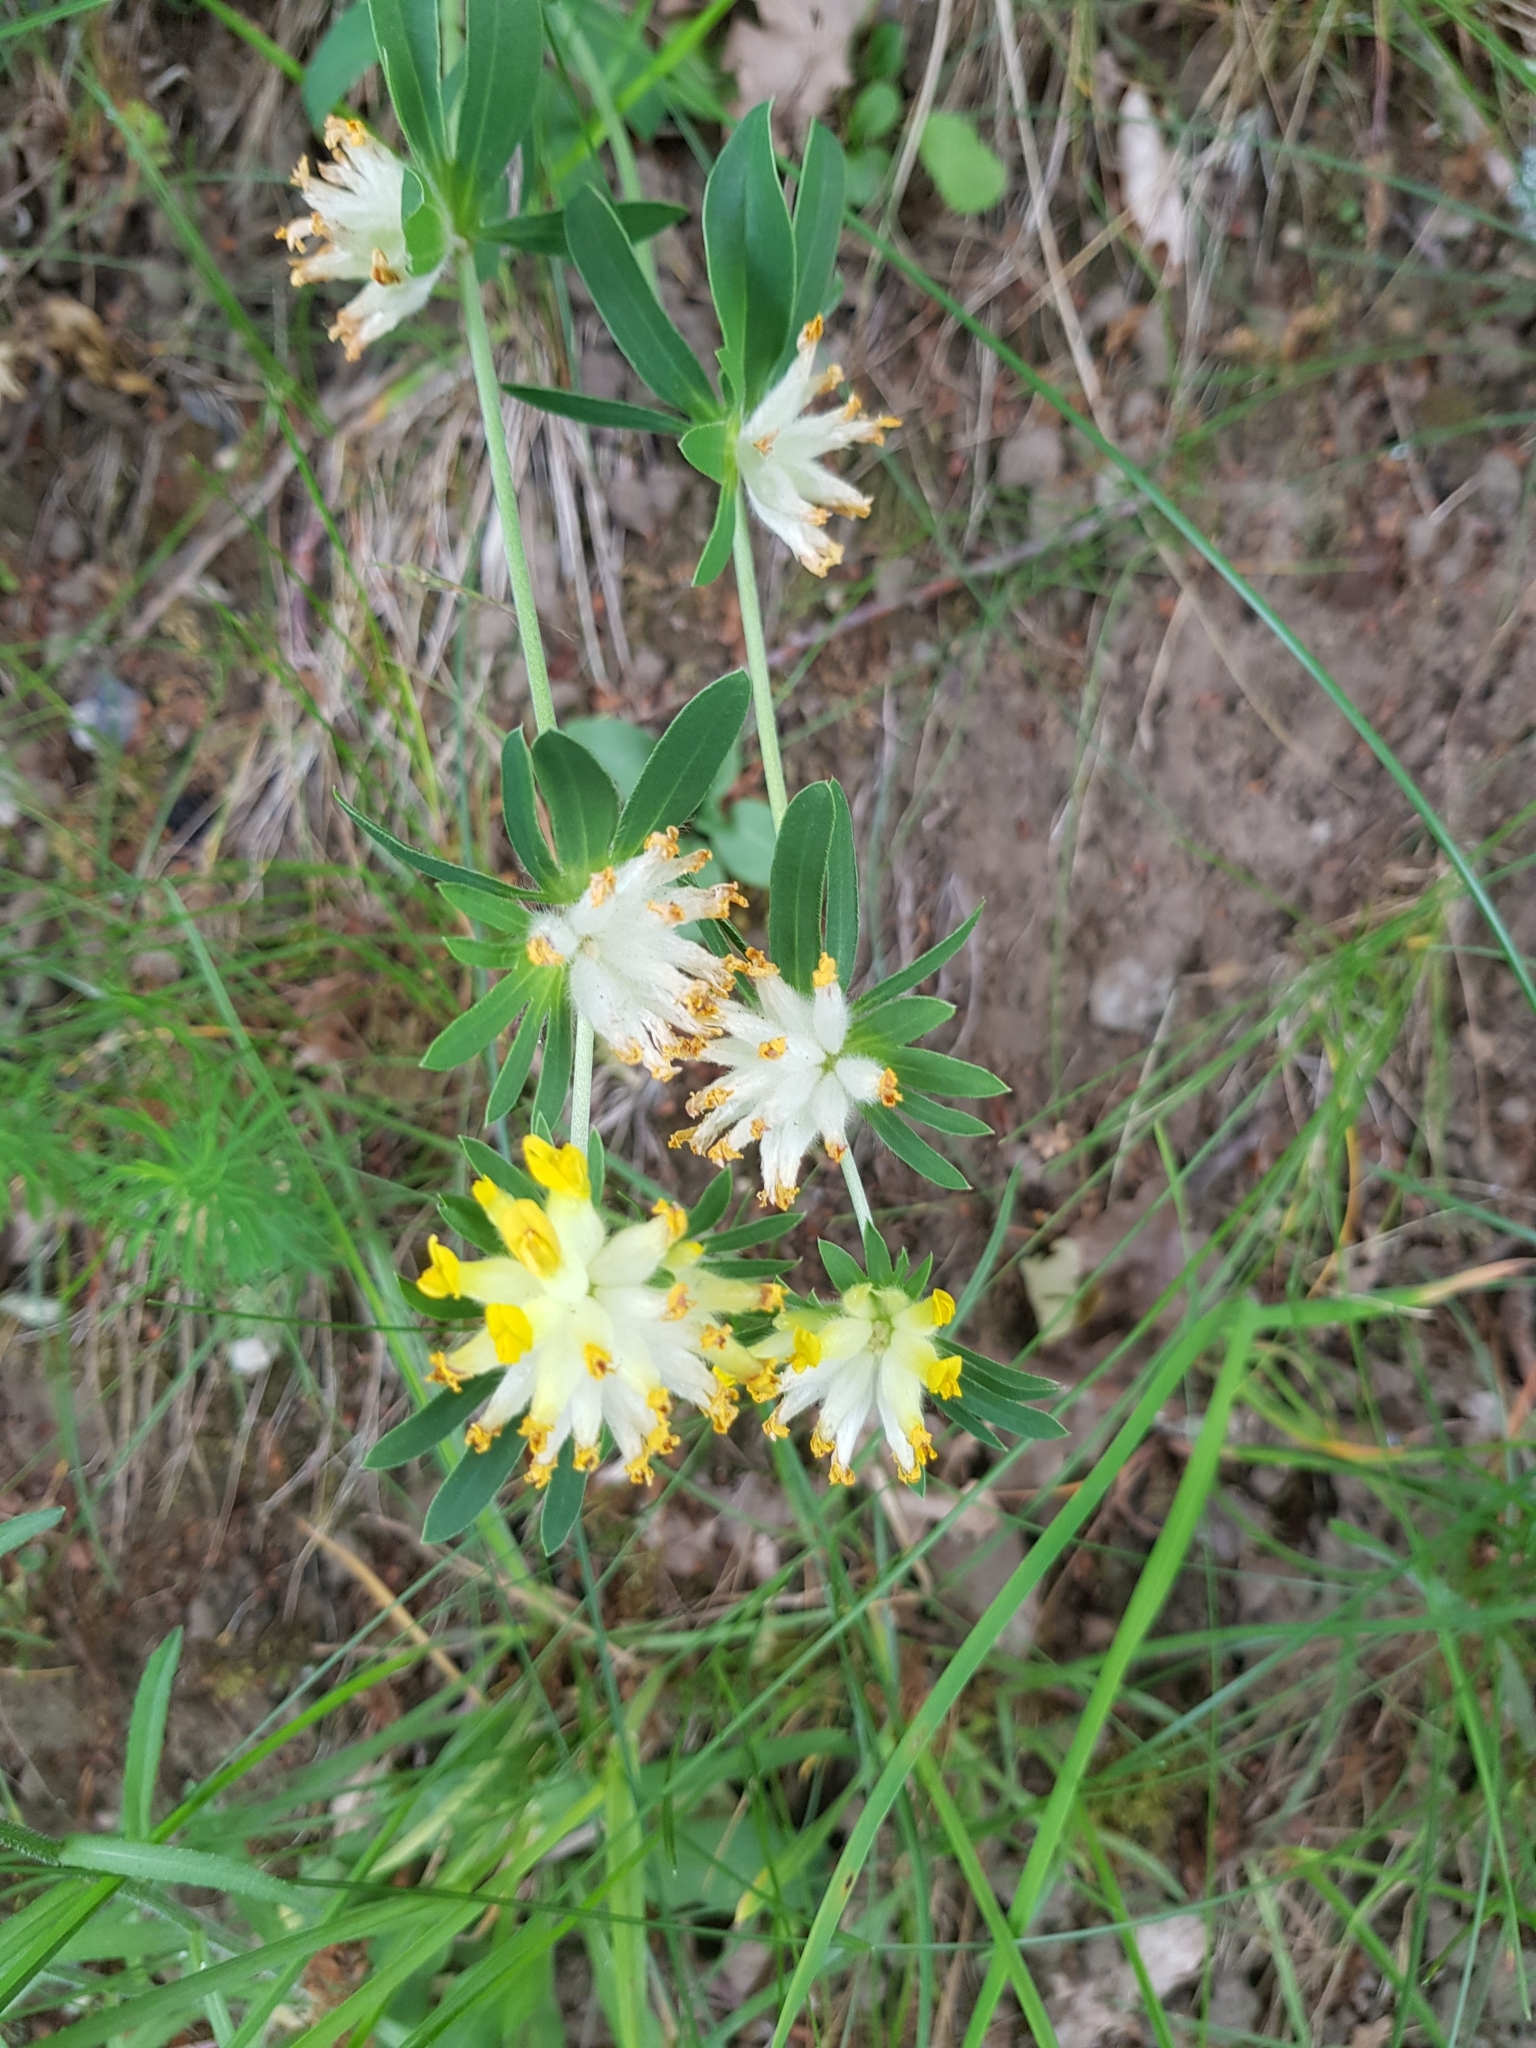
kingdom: Plantae
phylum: Tracheophyta
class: Magnoliopsida
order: Fabales
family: Fabaceae
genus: Anthyllis
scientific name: Anthyllis vulneraria
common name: Kidney vetch
